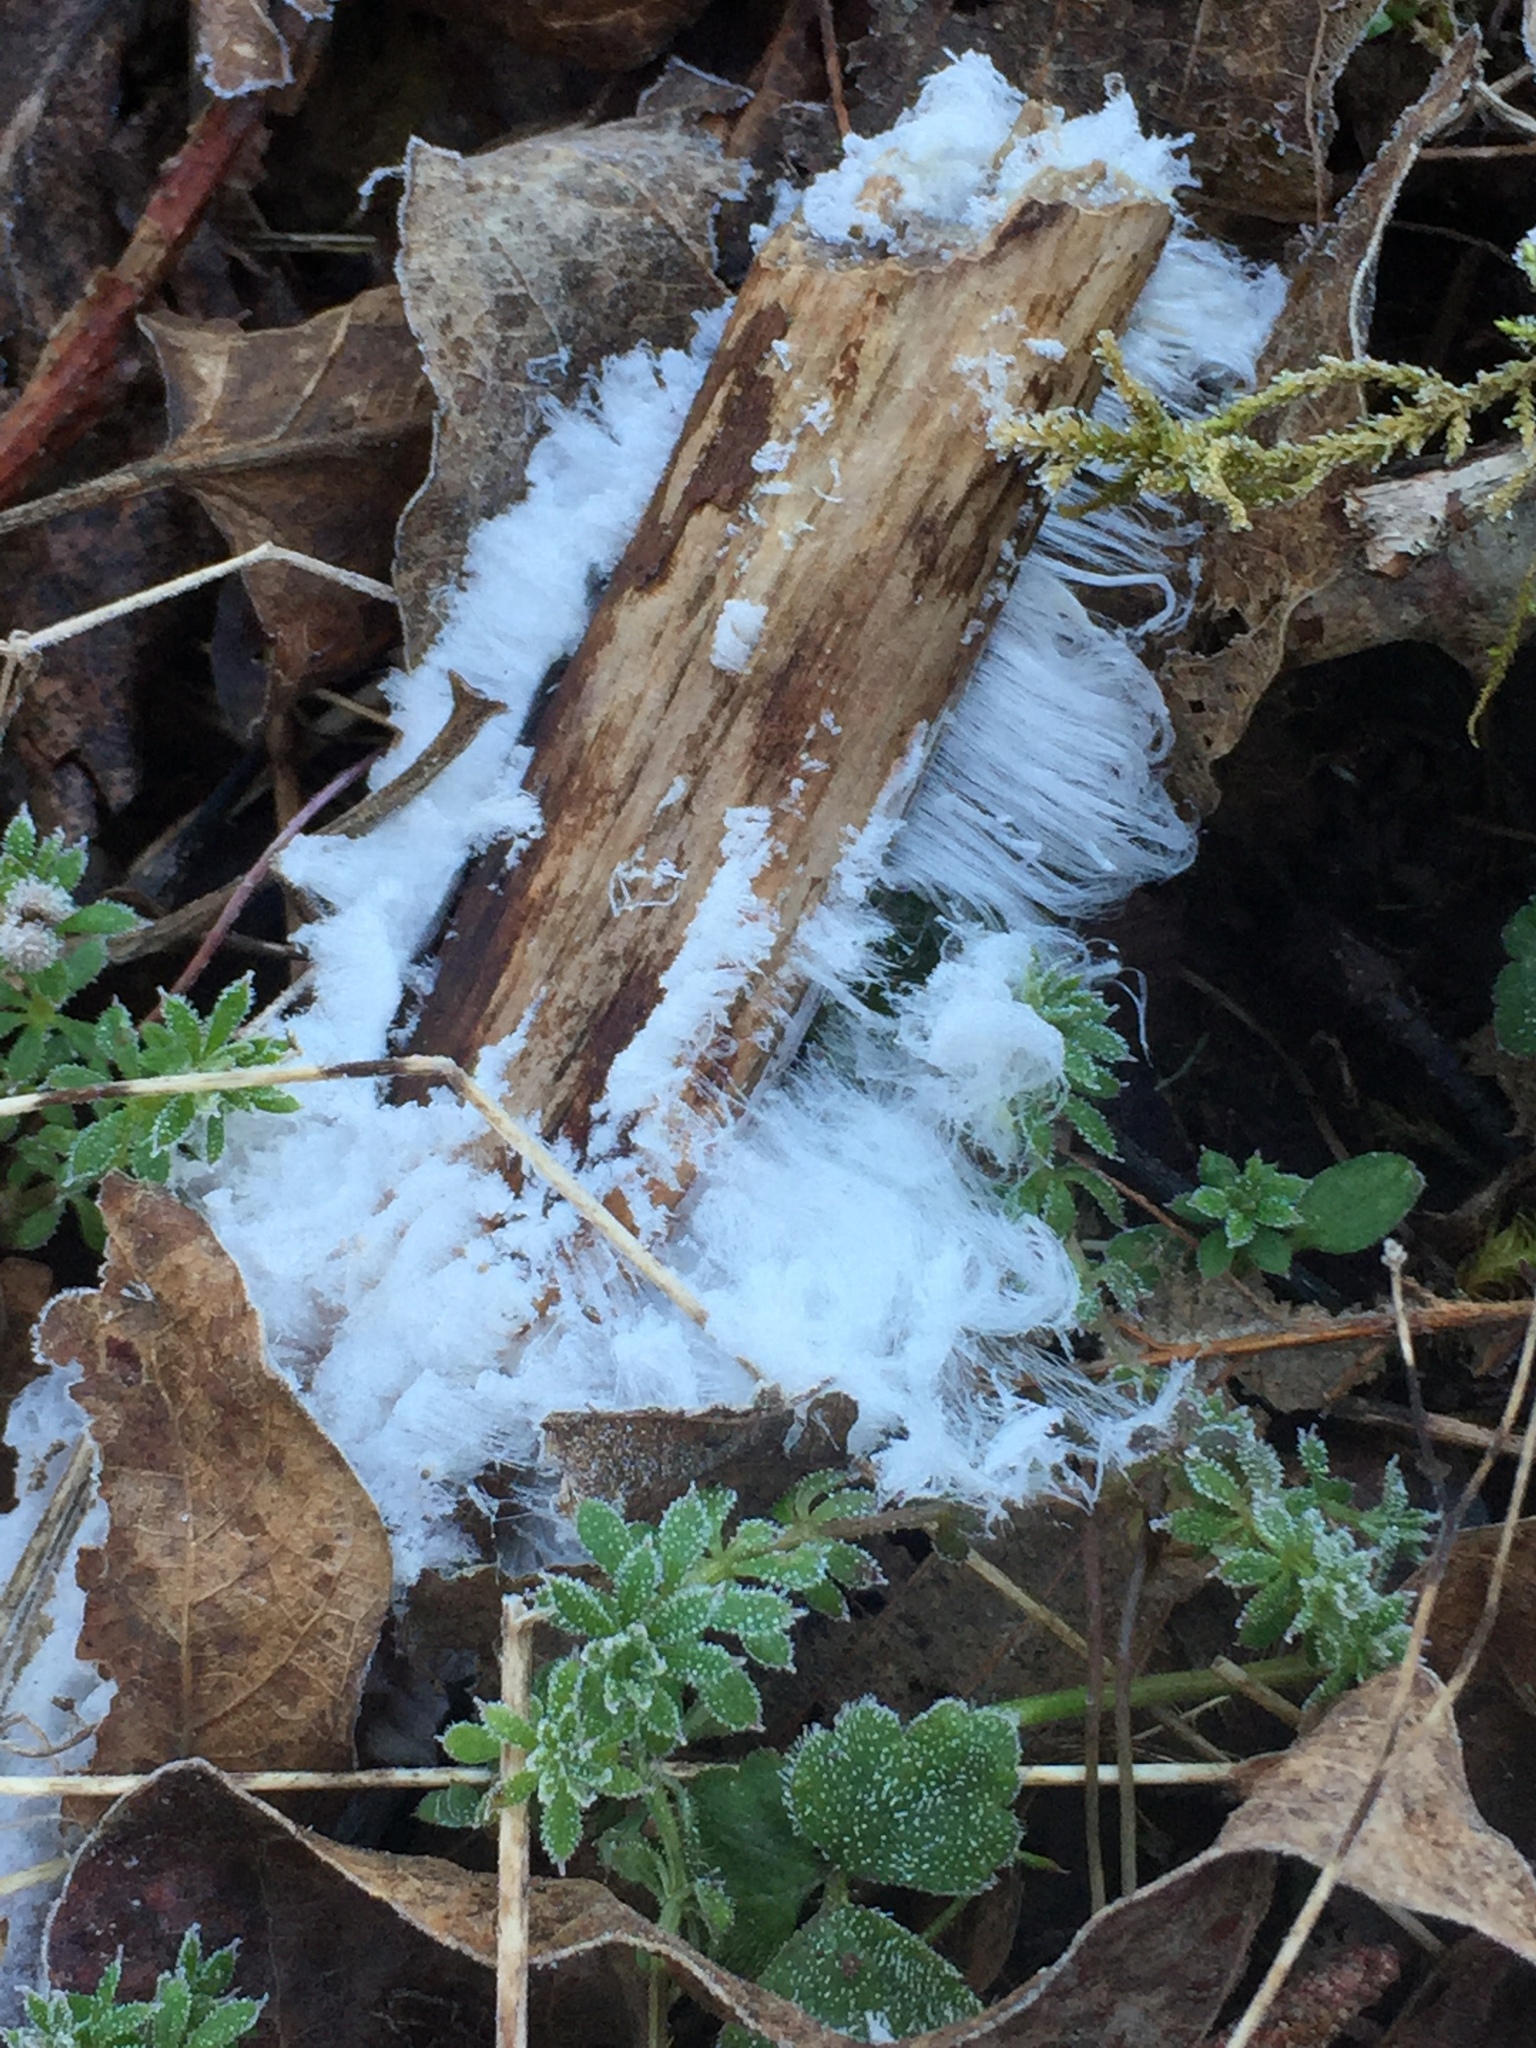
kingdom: Fungi
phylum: Basidiomycota
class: Agaricomycetes
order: Auriculariales
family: Auriculariaceae
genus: Exidiopsis
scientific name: Exidiopsis effusa
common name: Hair ice crust
